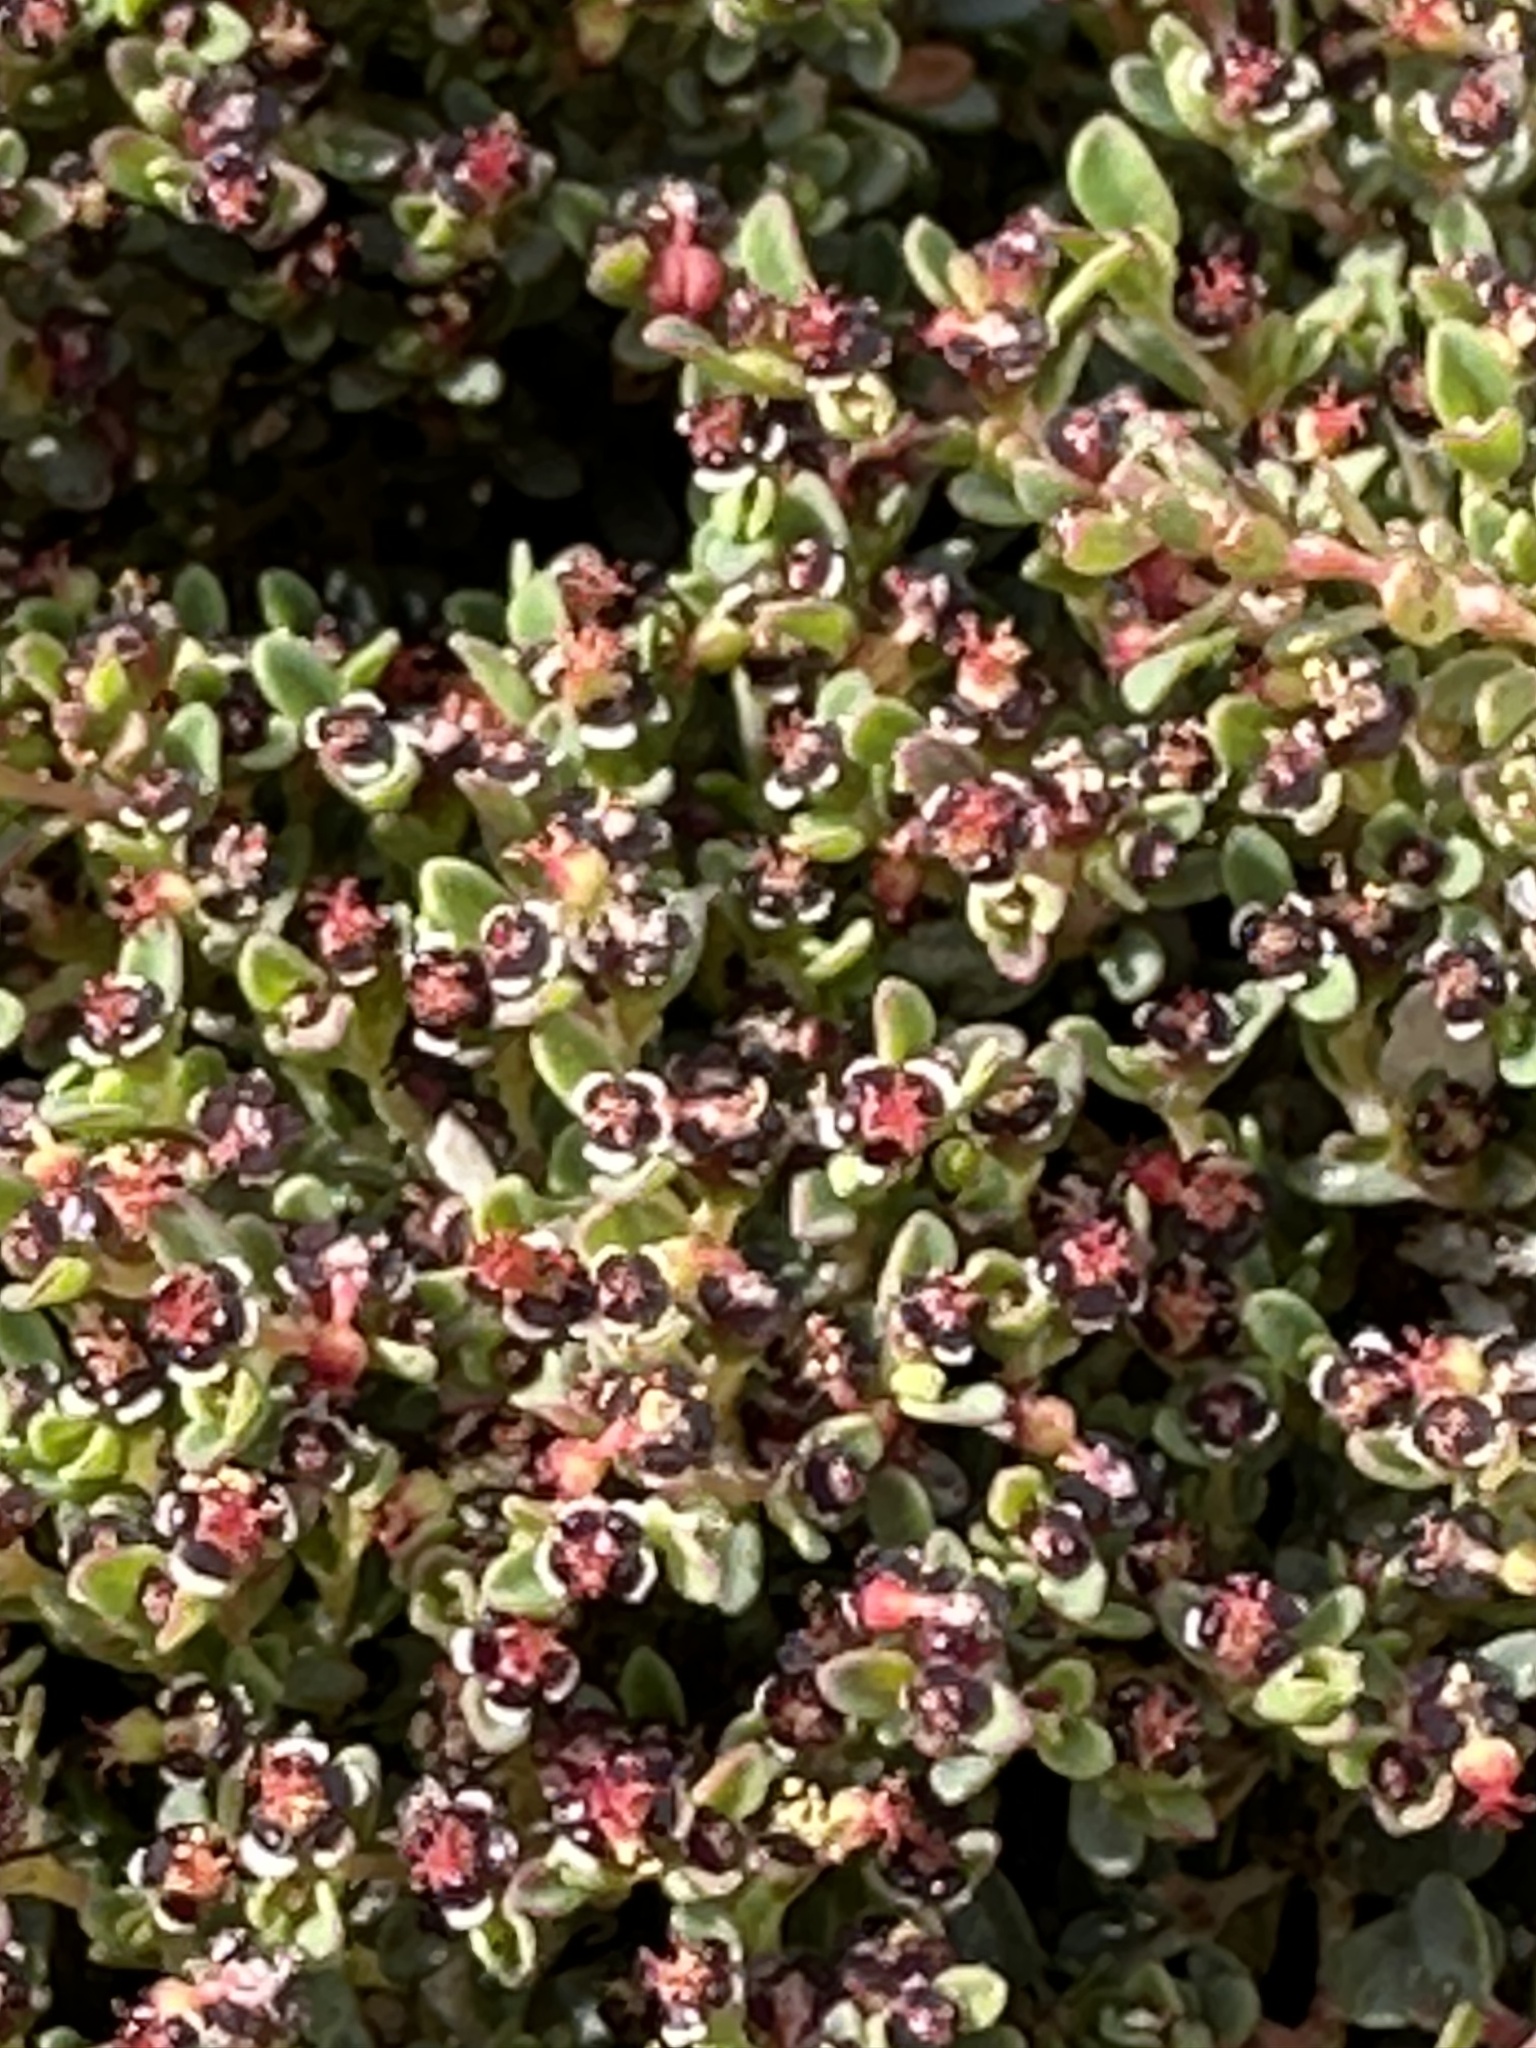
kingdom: Plantae
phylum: Tracheophyta
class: Magnoliopsida
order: Malpighiales
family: Euphorbiaceae
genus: Euphorbia
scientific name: Euphorbia polycarpa
